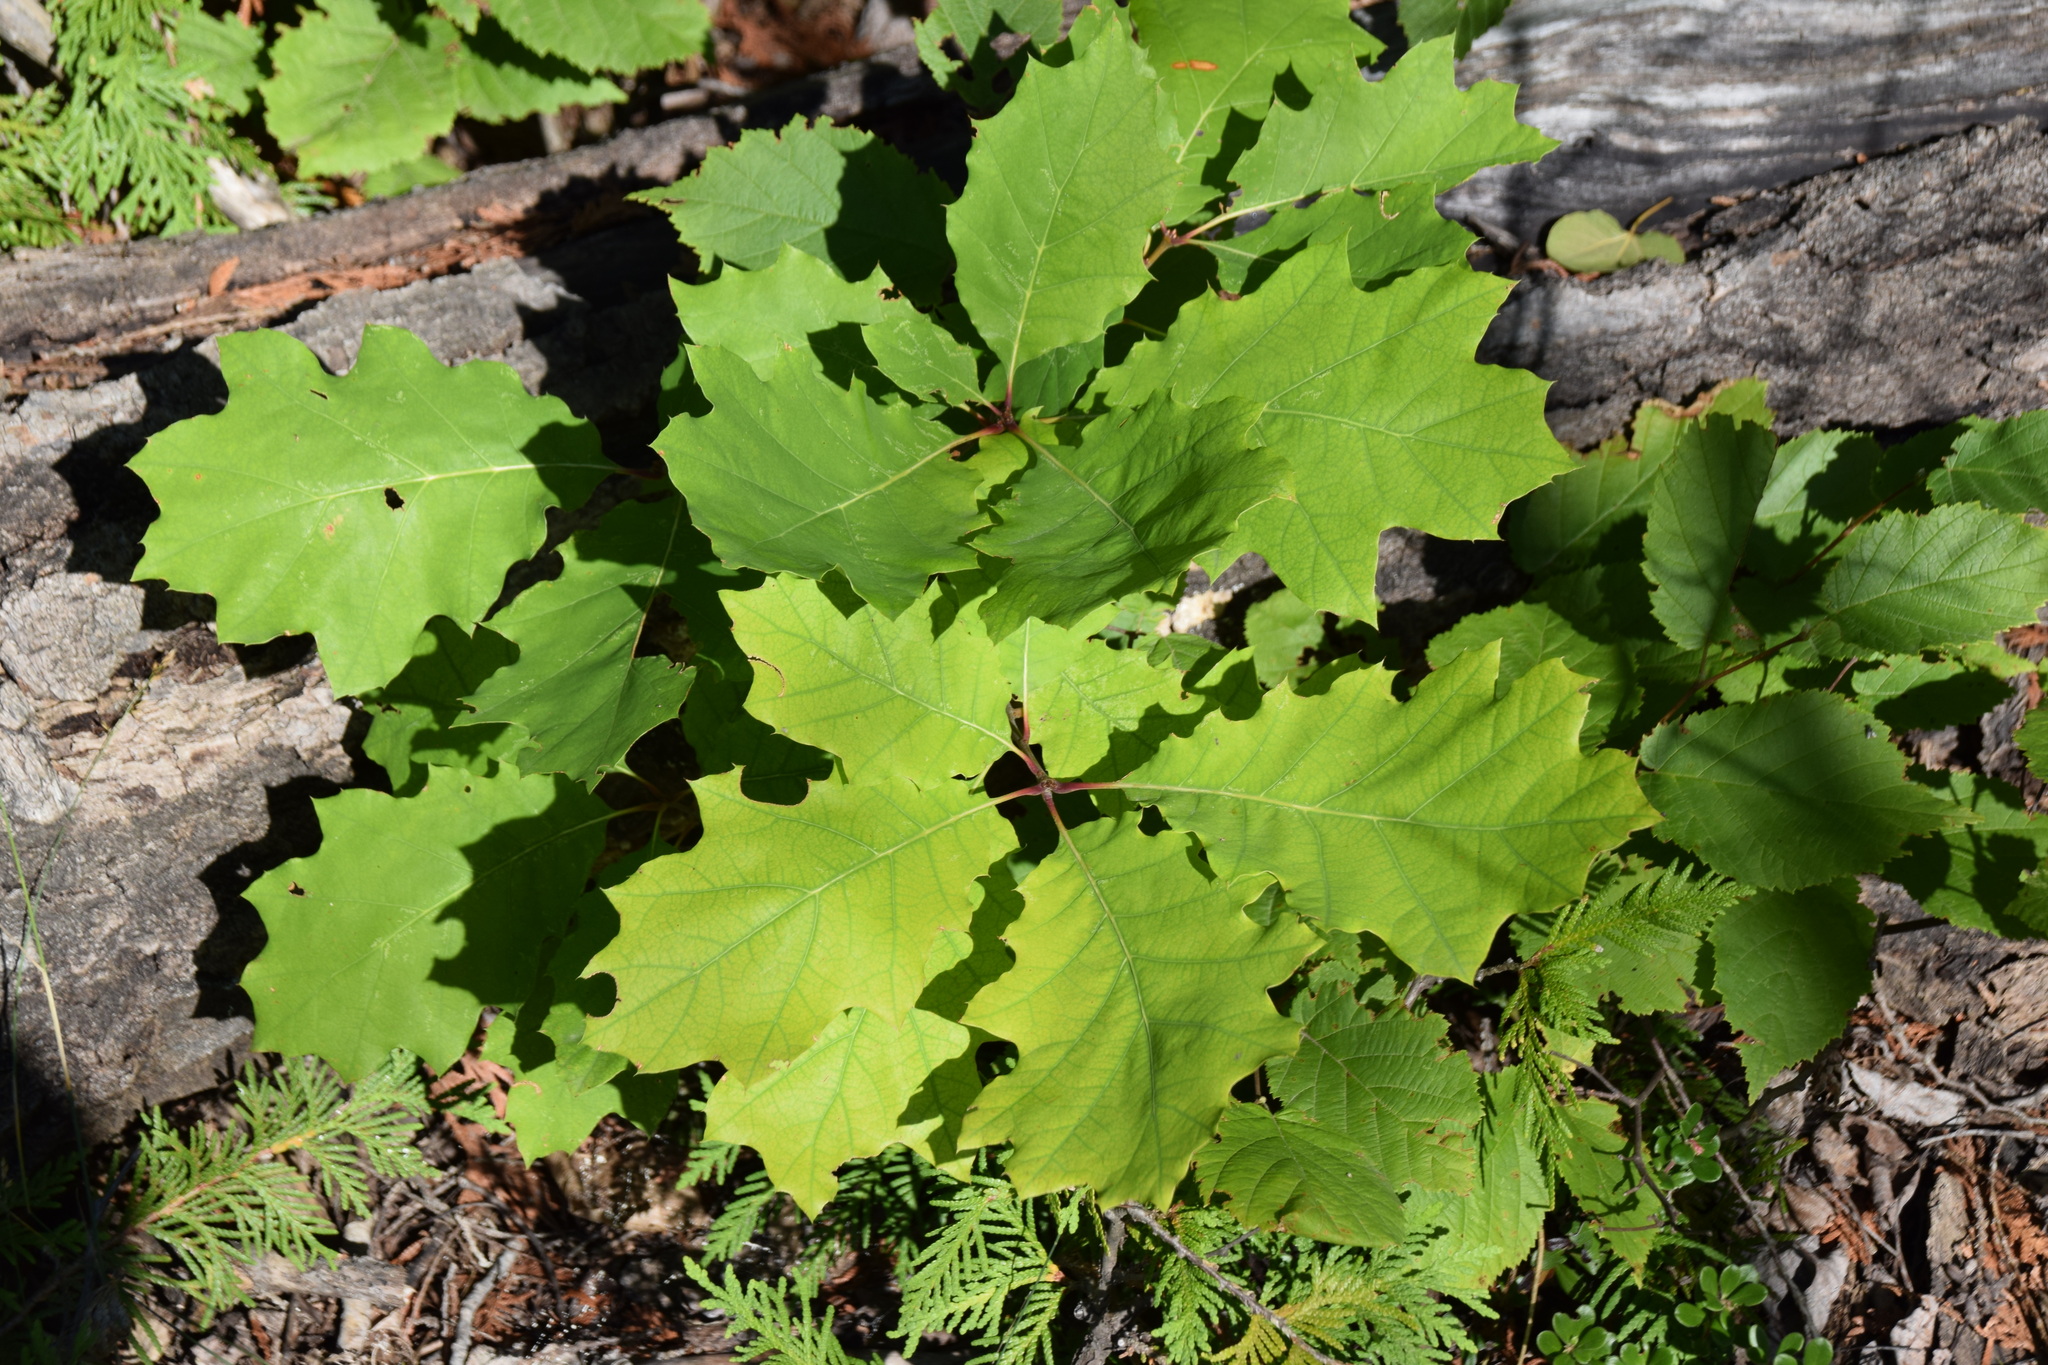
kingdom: Plantae
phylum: Tracheophyta
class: Magnoliopsida
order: Fagales
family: Fagaceae
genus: Quercus
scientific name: Quercus rubra
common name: Red oak
